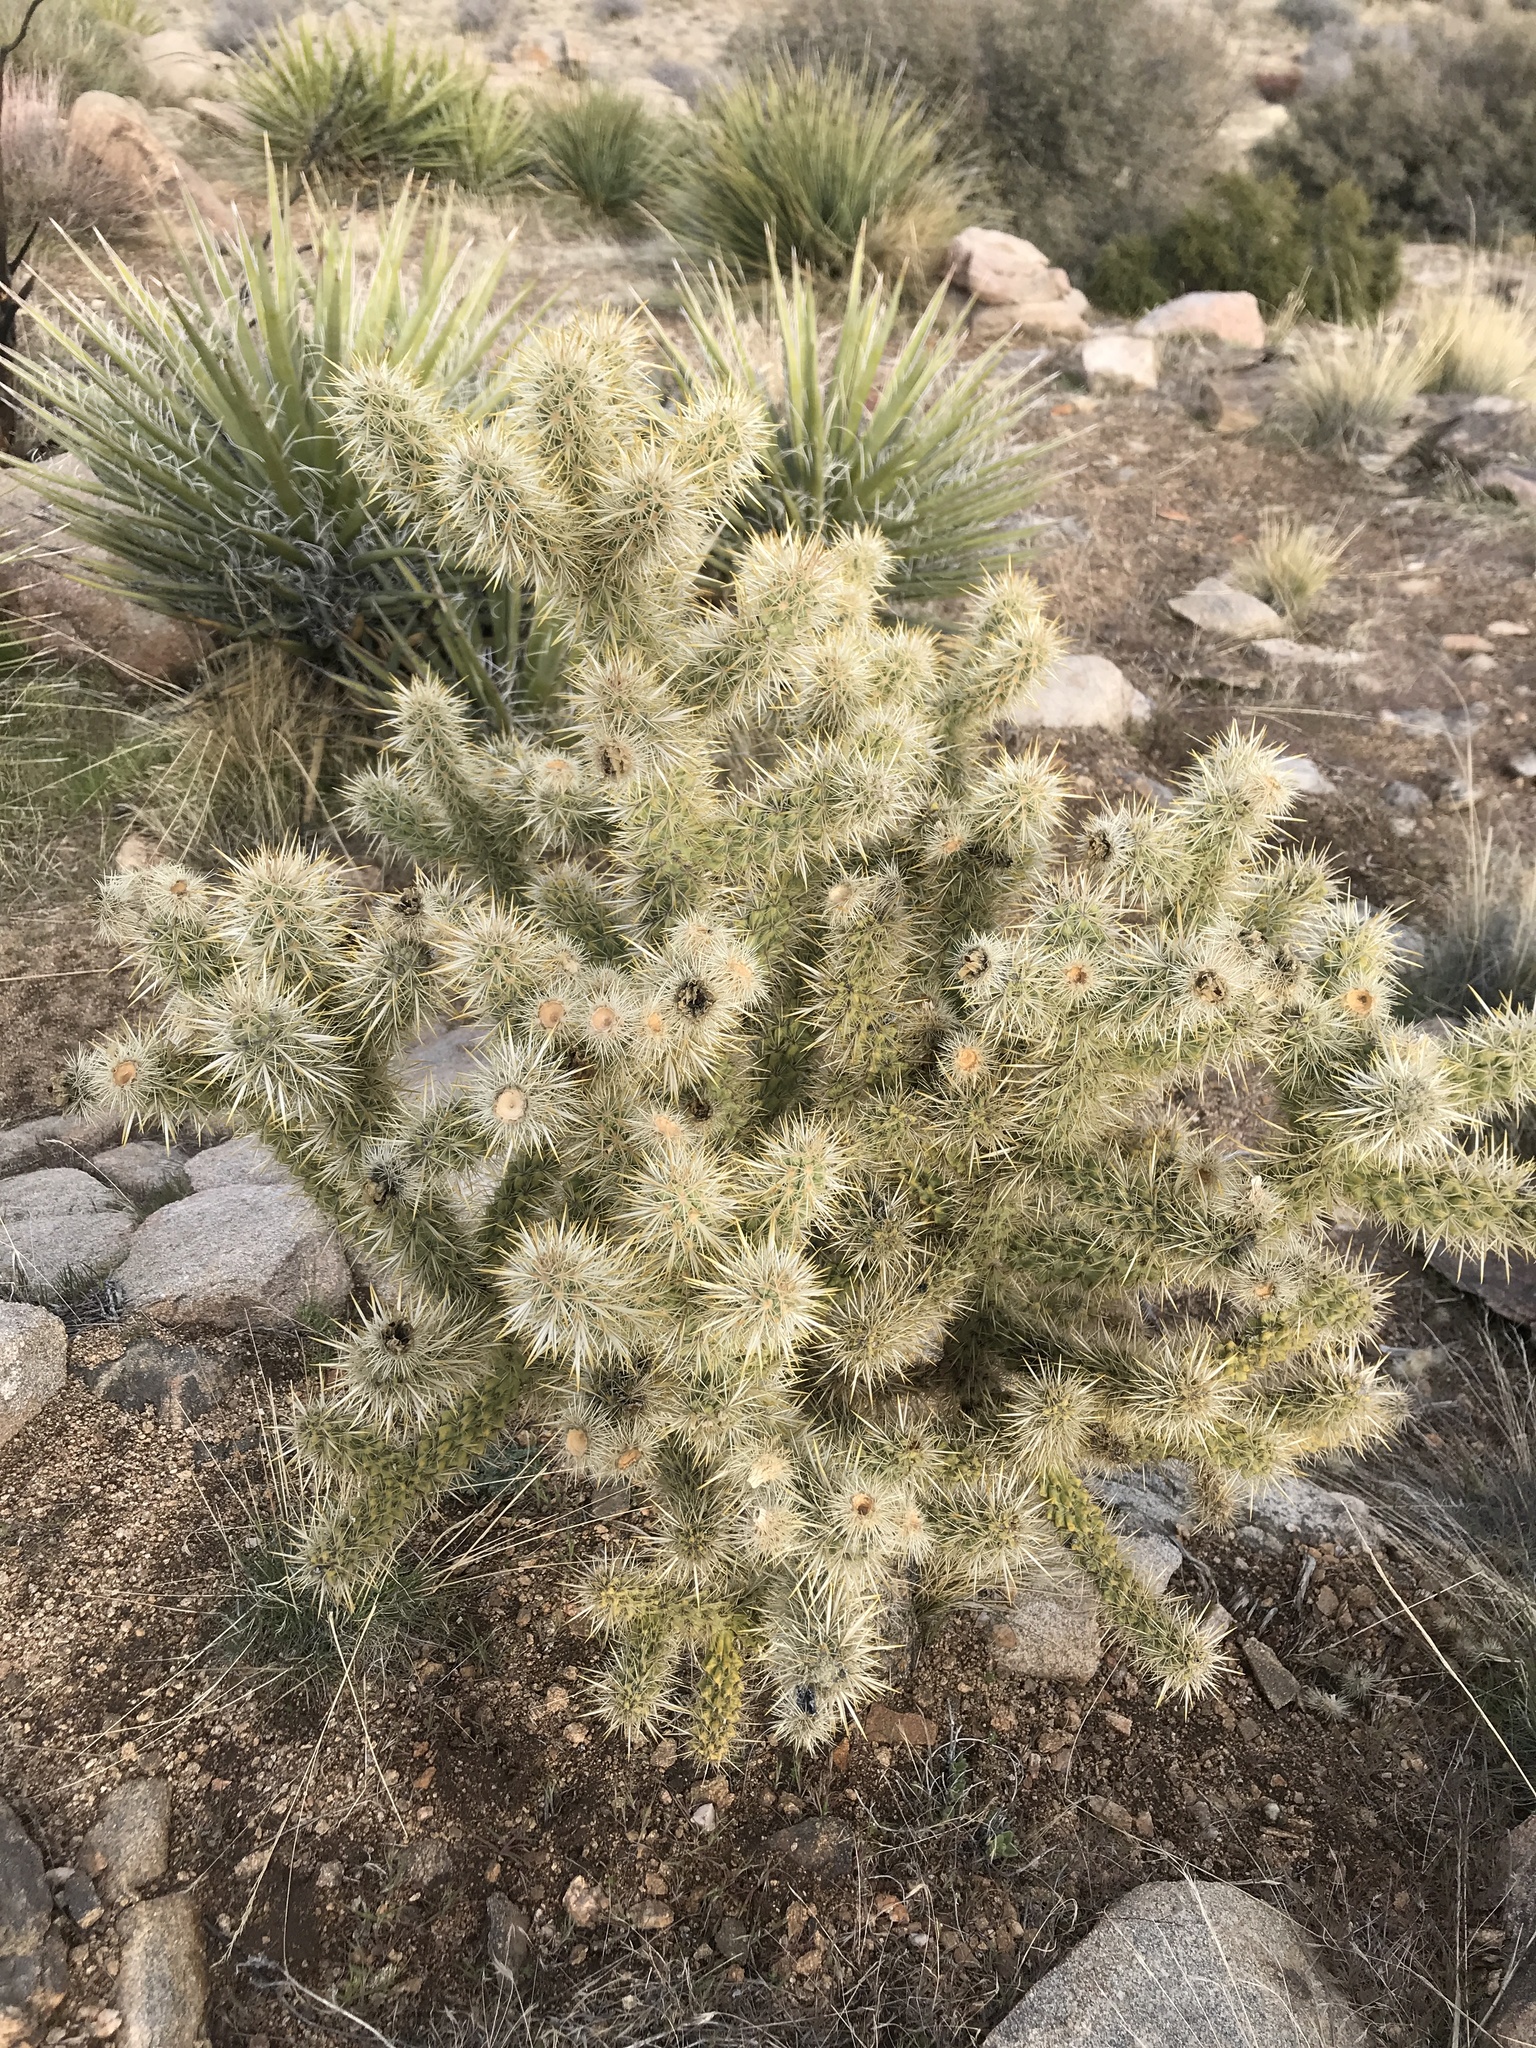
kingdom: Plantae
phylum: Tracheophyta
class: Magnoliopsida
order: Caryophyllales
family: Cactaceae
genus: Cylindropuntia
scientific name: Cylindropuntia echinocarpa
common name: Ground cholla
